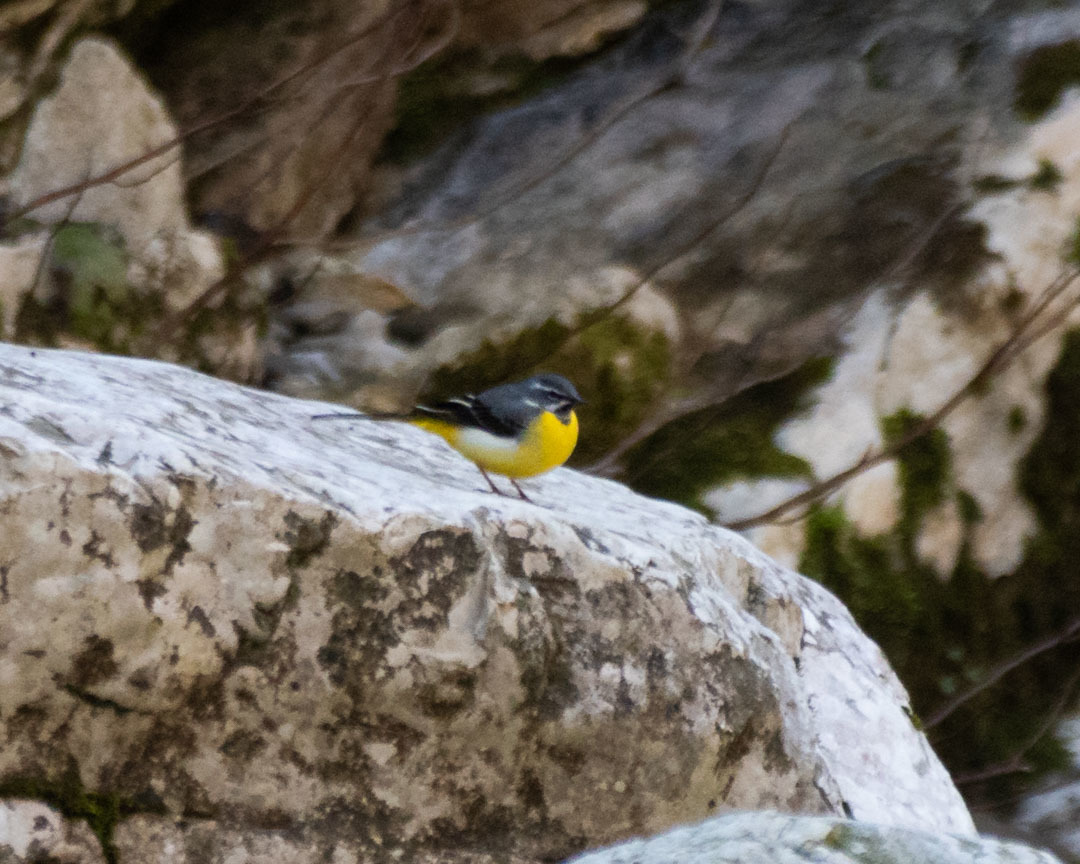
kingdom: Animalia
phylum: Chordata
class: Aves
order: Passeriformes
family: Motacillidae
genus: Motacilla
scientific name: Motacilla cinerea
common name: Grey wagtail
